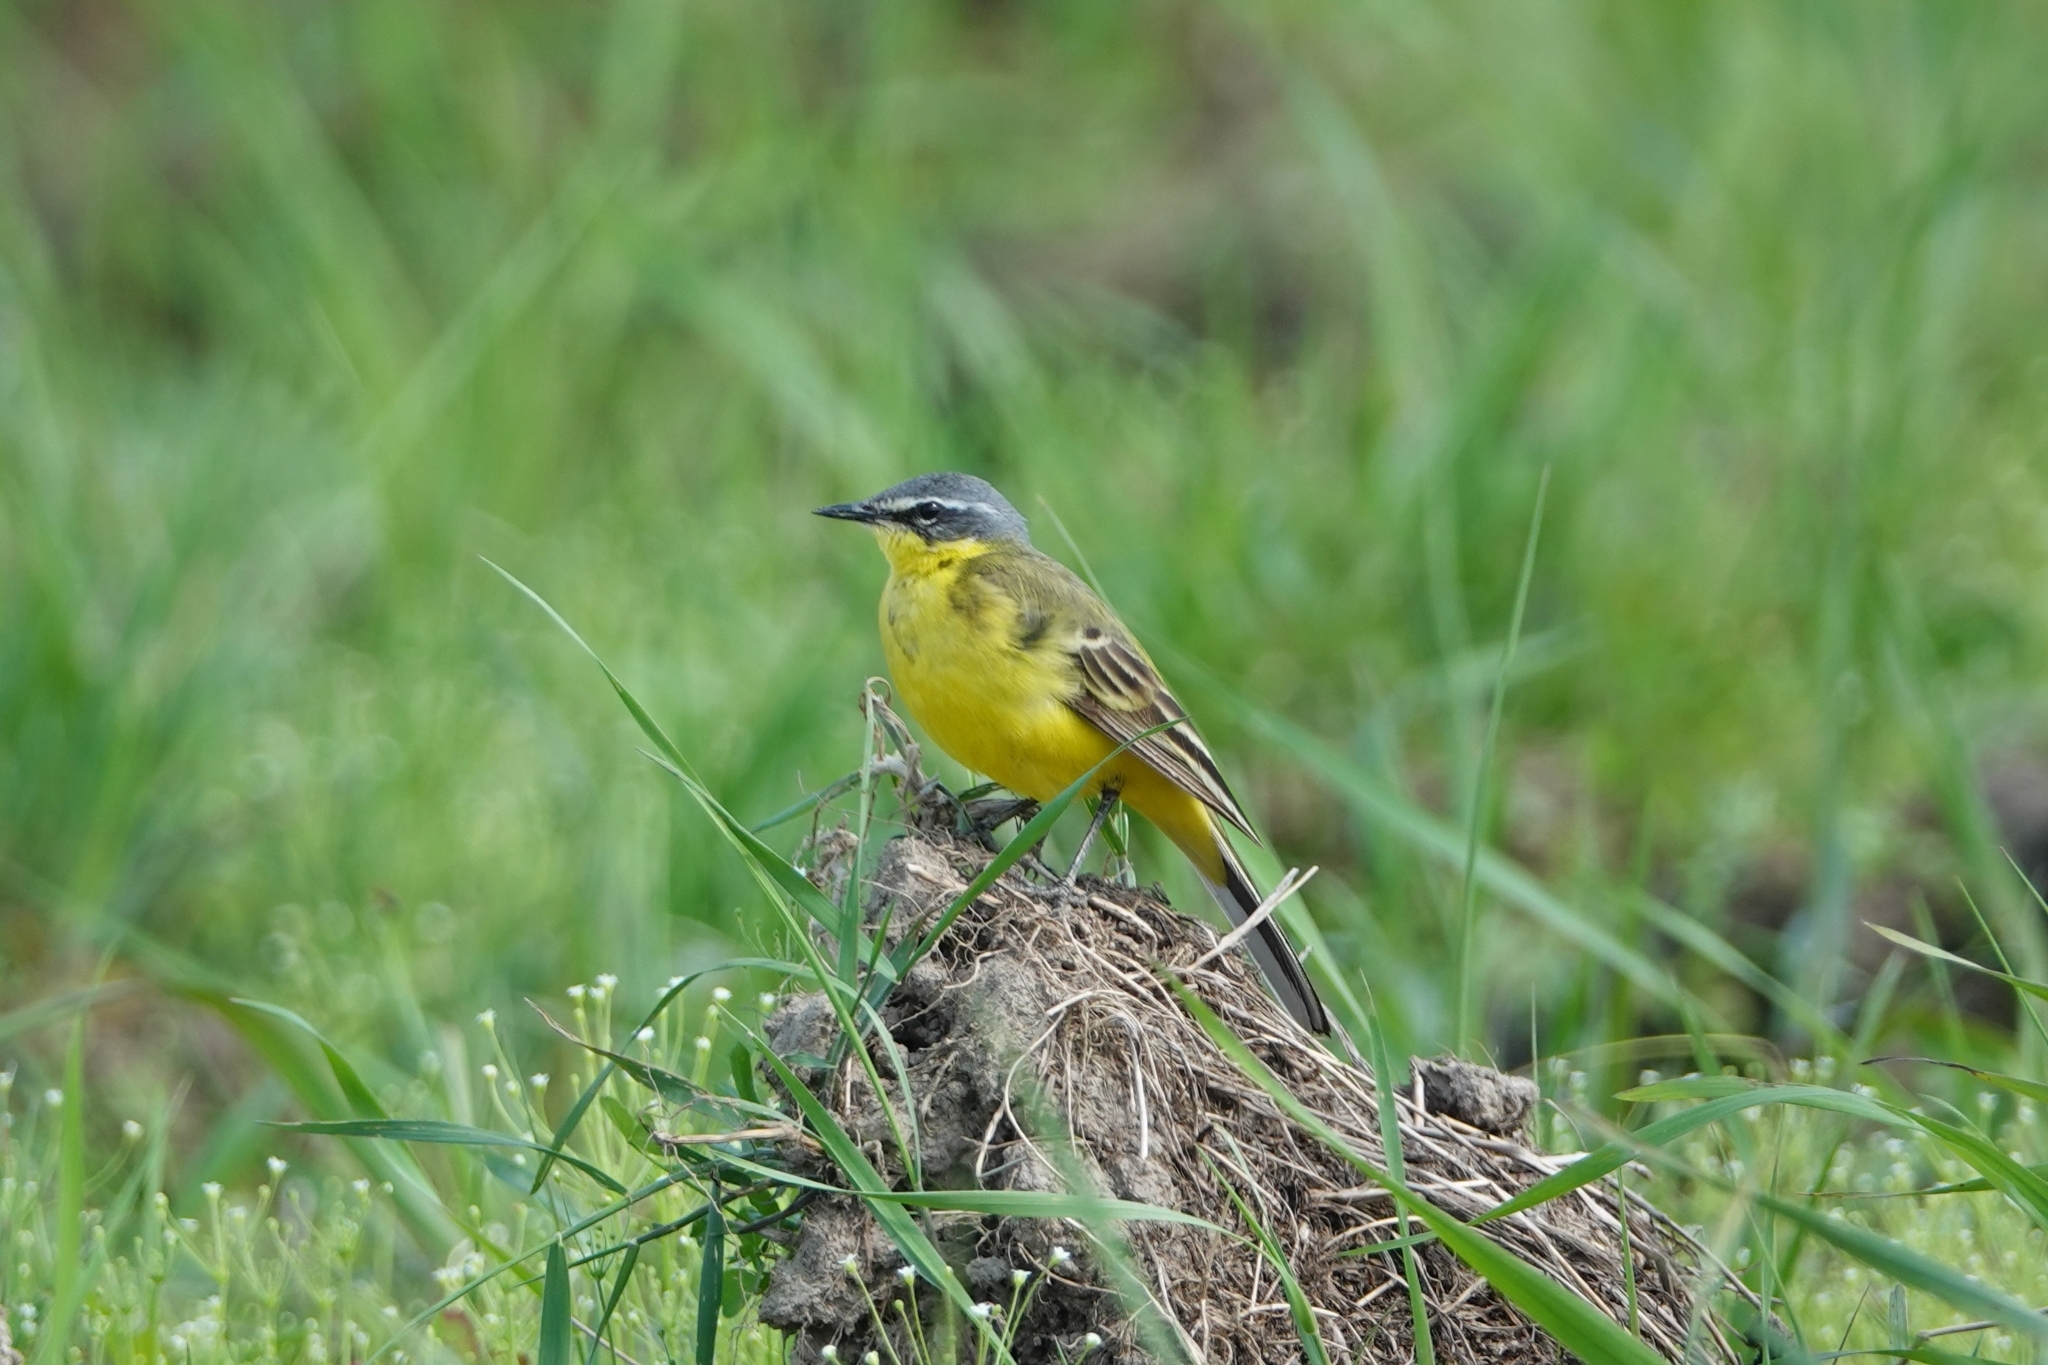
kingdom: Animalia
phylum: Chordata
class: Aves
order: Passeriformes
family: Motacillidae
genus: Motacilla
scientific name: Motacilla flava
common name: Western yellow wagtail
